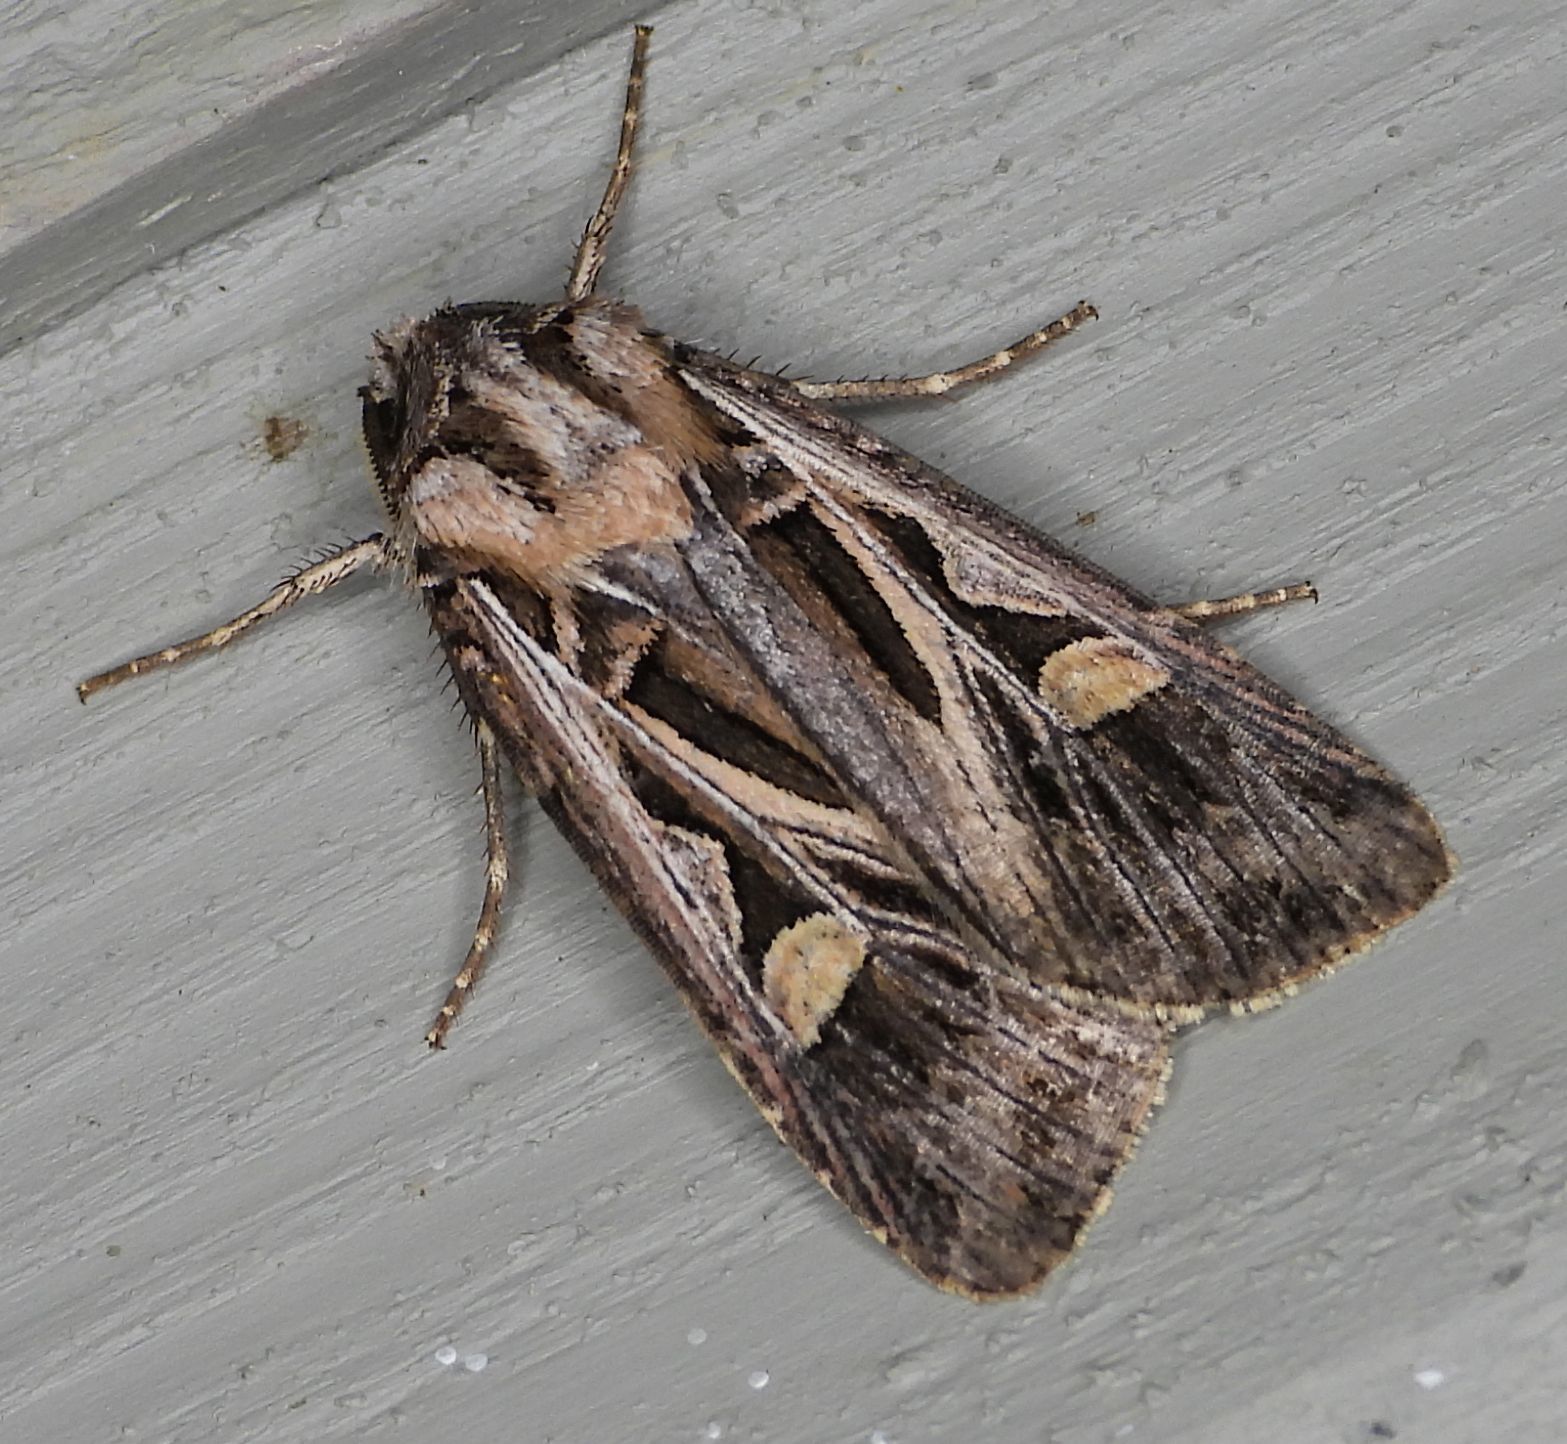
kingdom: Animalia
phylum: Arthropoda
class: Insecta
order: Lepidoptera
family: Noctuidae
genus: Feltia
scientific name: Feltia jaculifera
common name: Dingy cutworm moth
